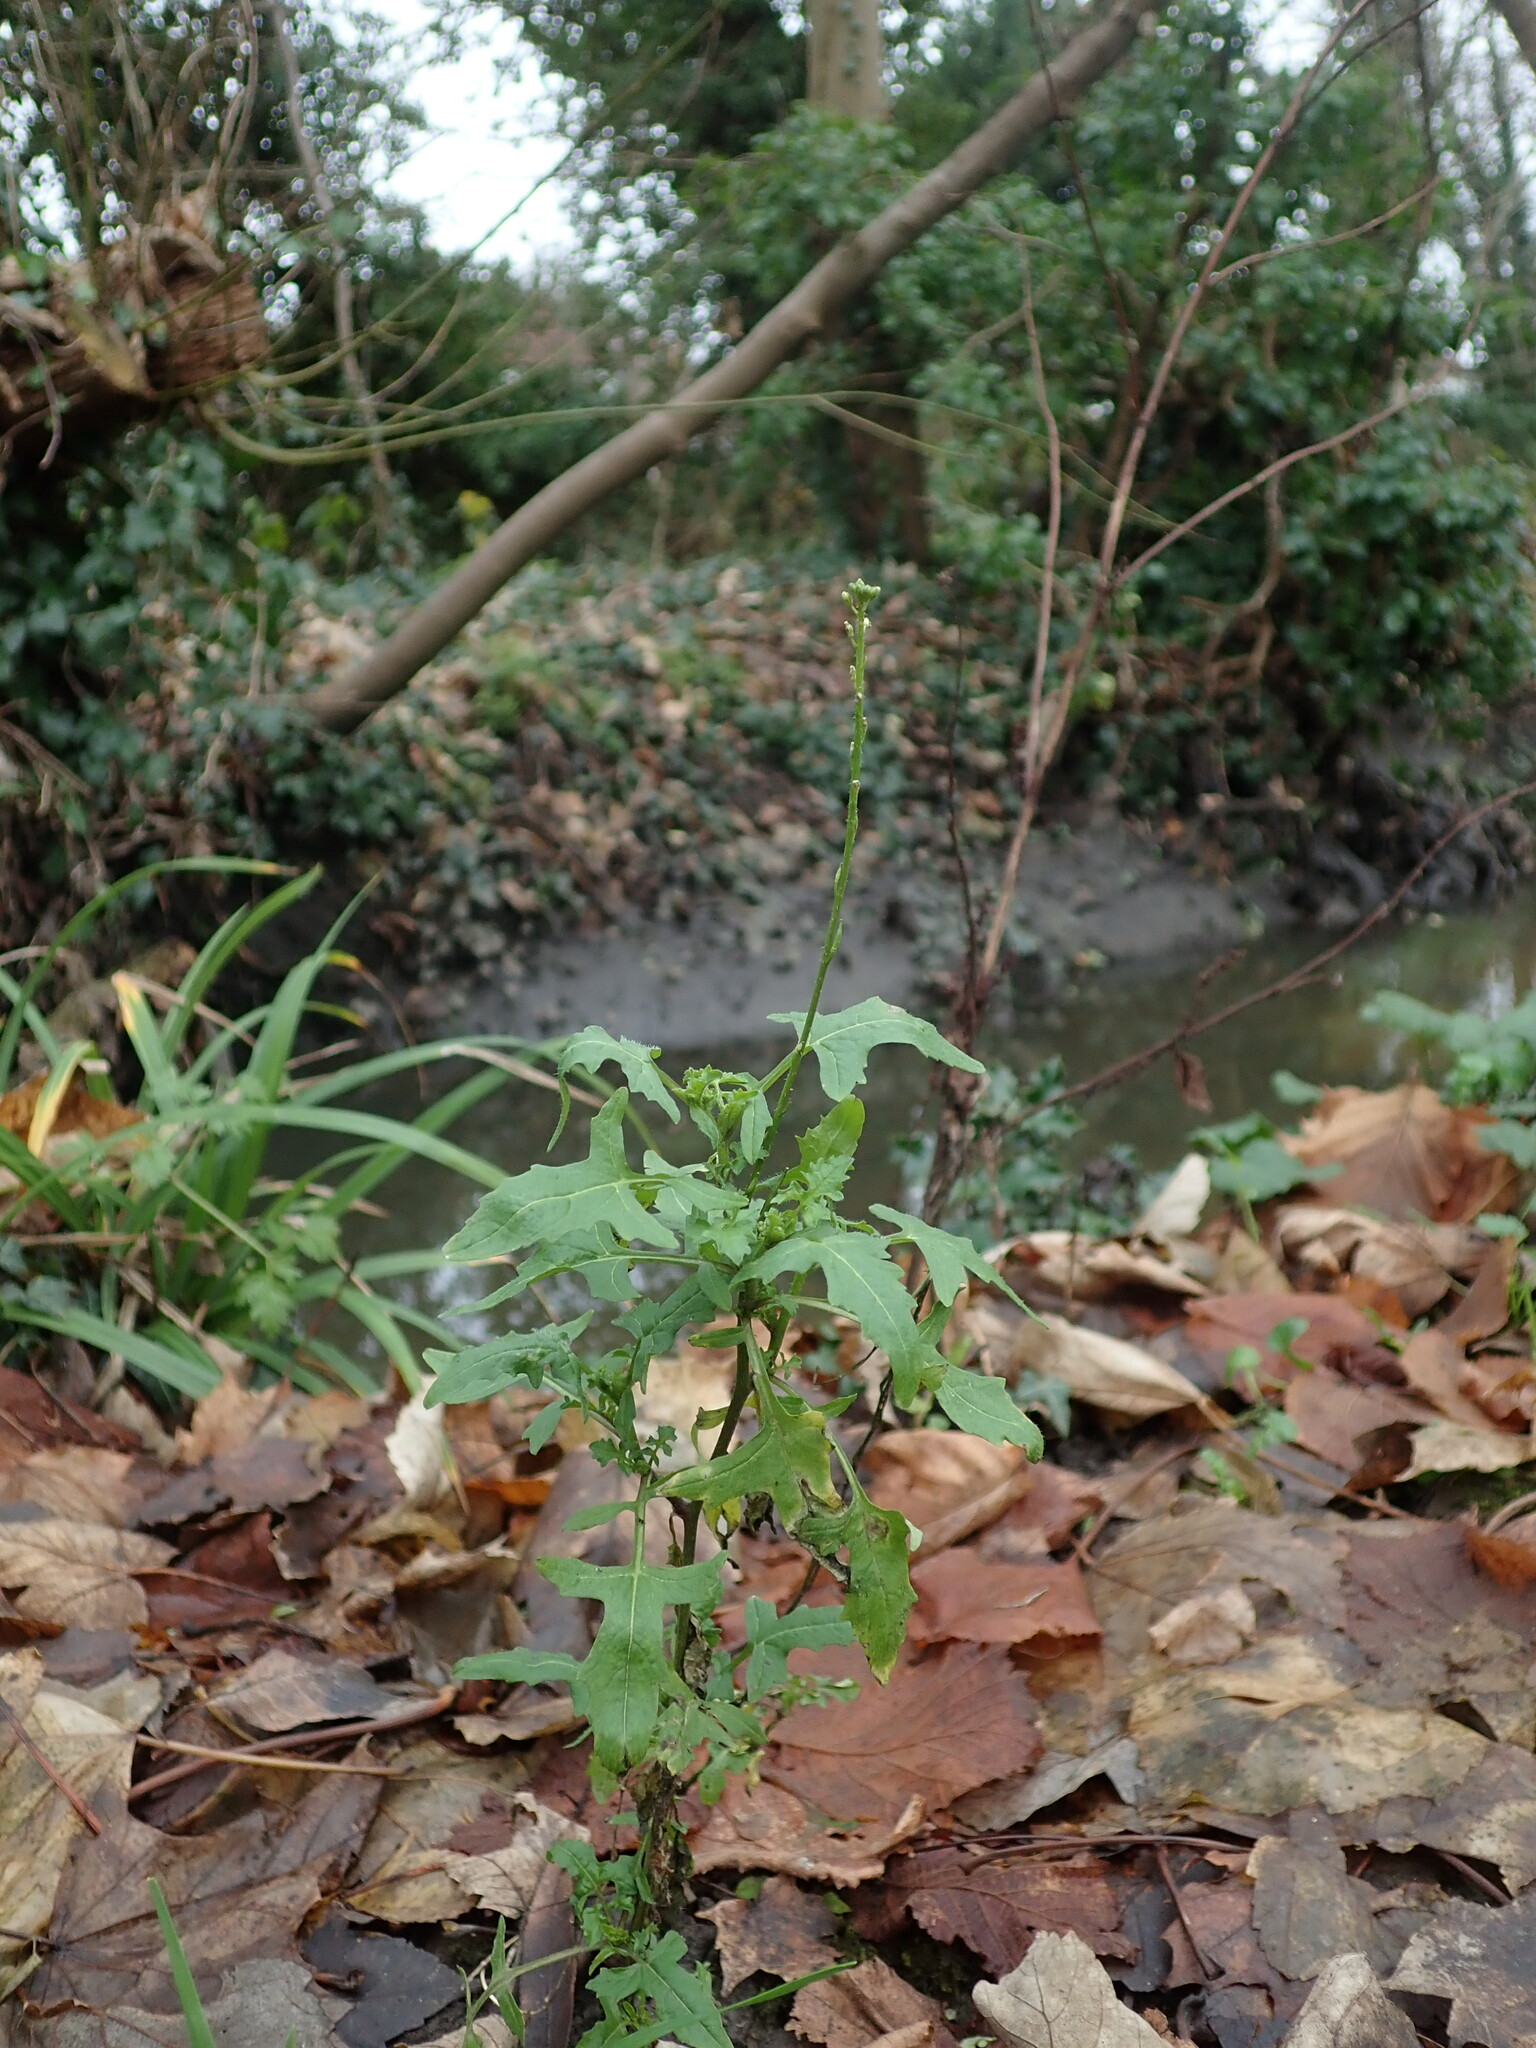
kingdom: Plantae
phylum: Tracheophyta
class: Magnoliopsida
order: Brassicales
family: Brassicaceae
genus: Sisymbrium
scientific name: Sisymbrium officinale
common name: Hedge mustard
